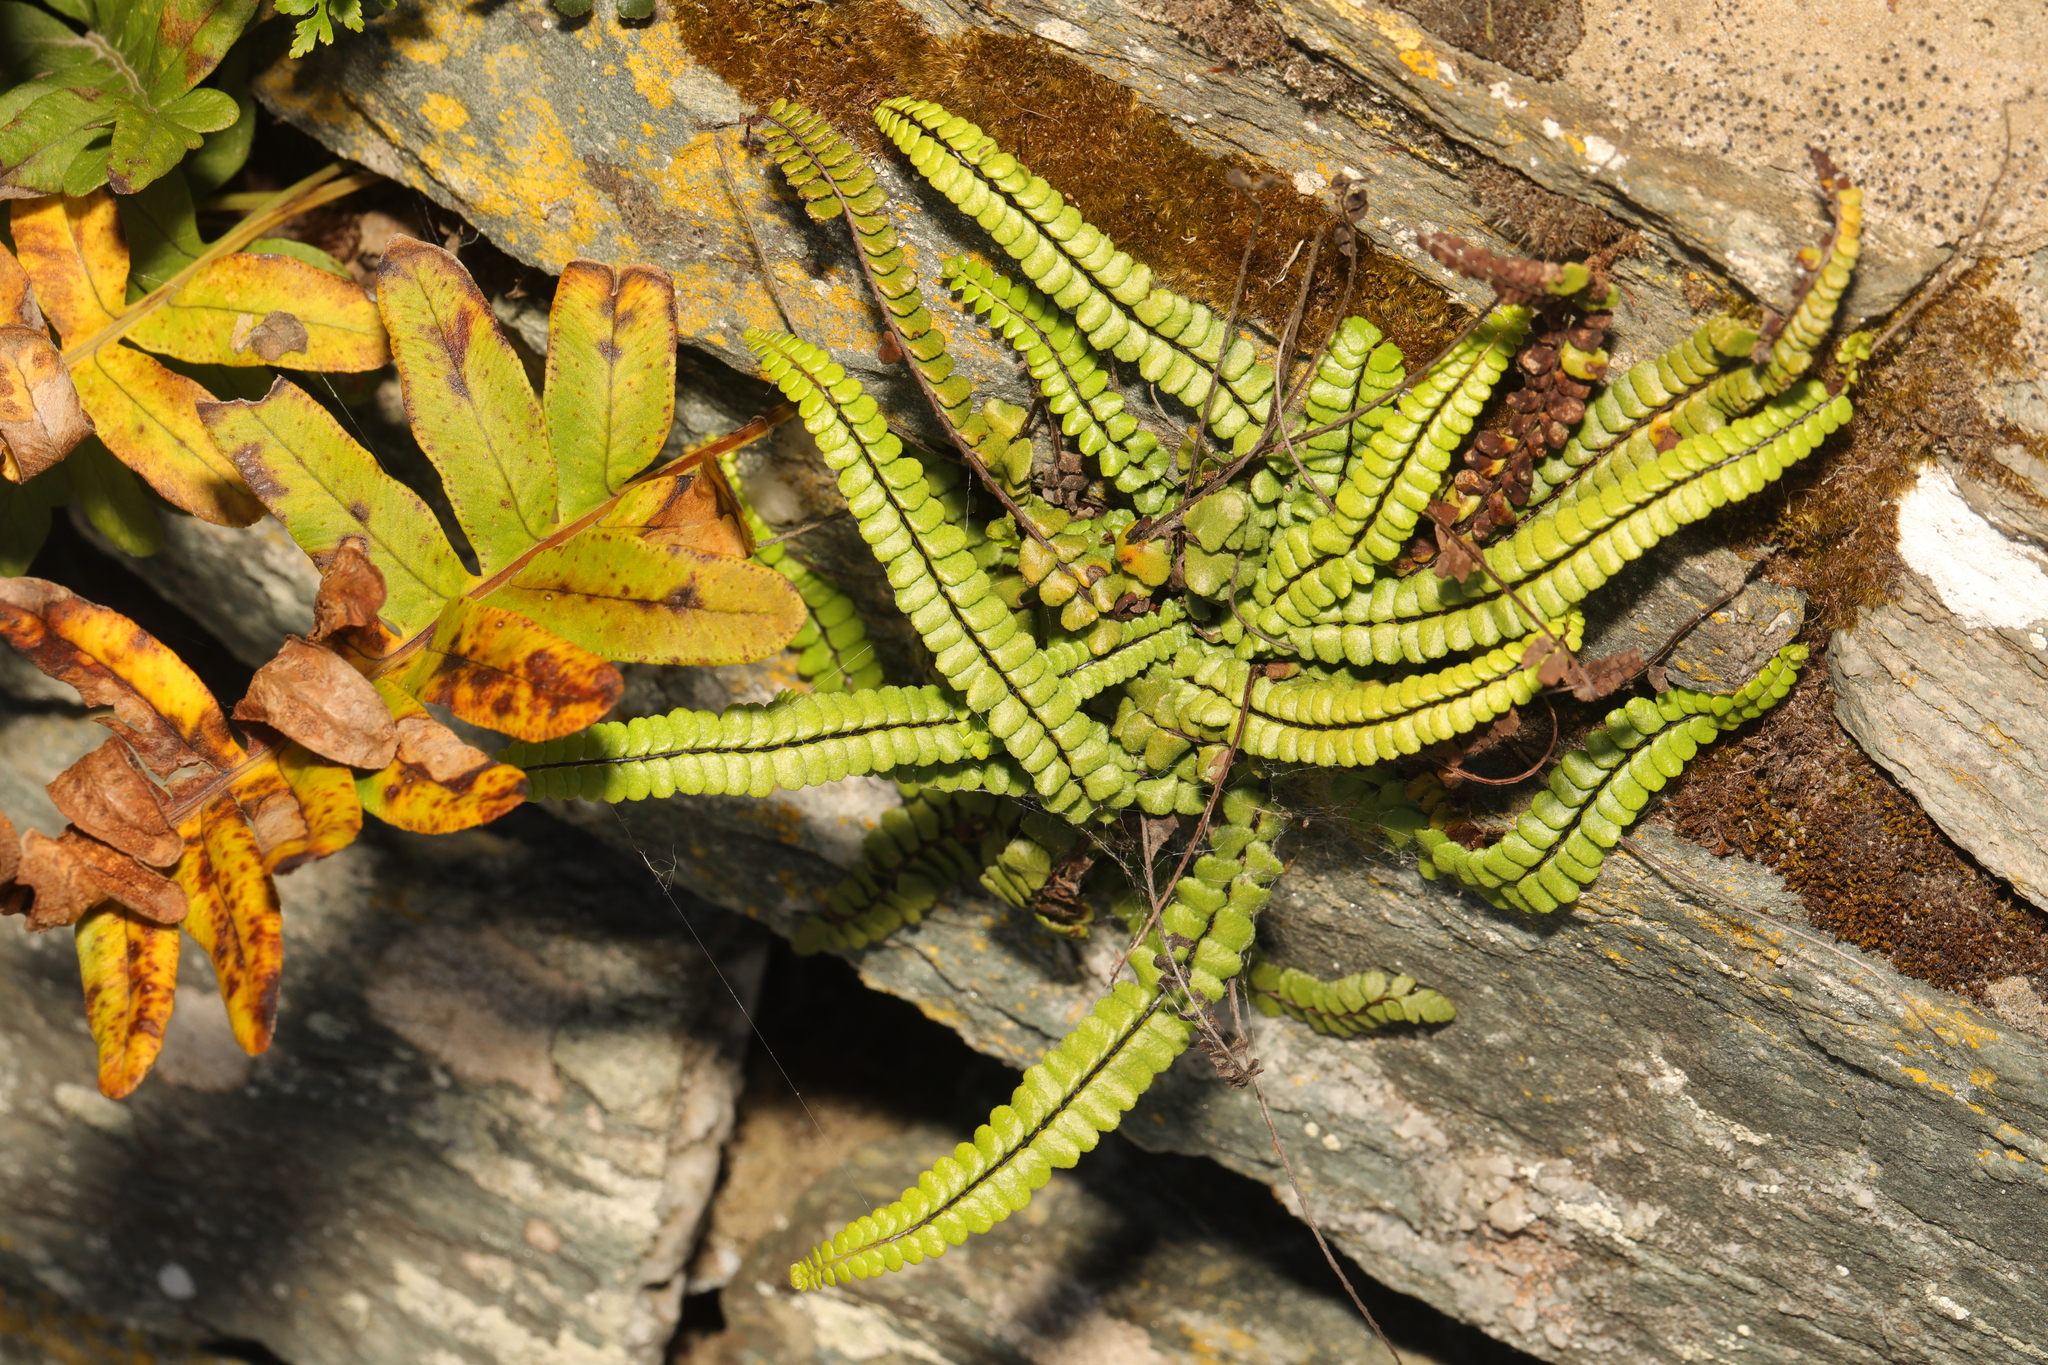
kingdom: Plantae
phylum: Tracheophyta
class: Polypodiopsida
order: Polypodiales
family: Aspleniaceae
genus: Asplenium
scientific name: Asplenium trichomanes
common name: Maidenhair spleenwort
